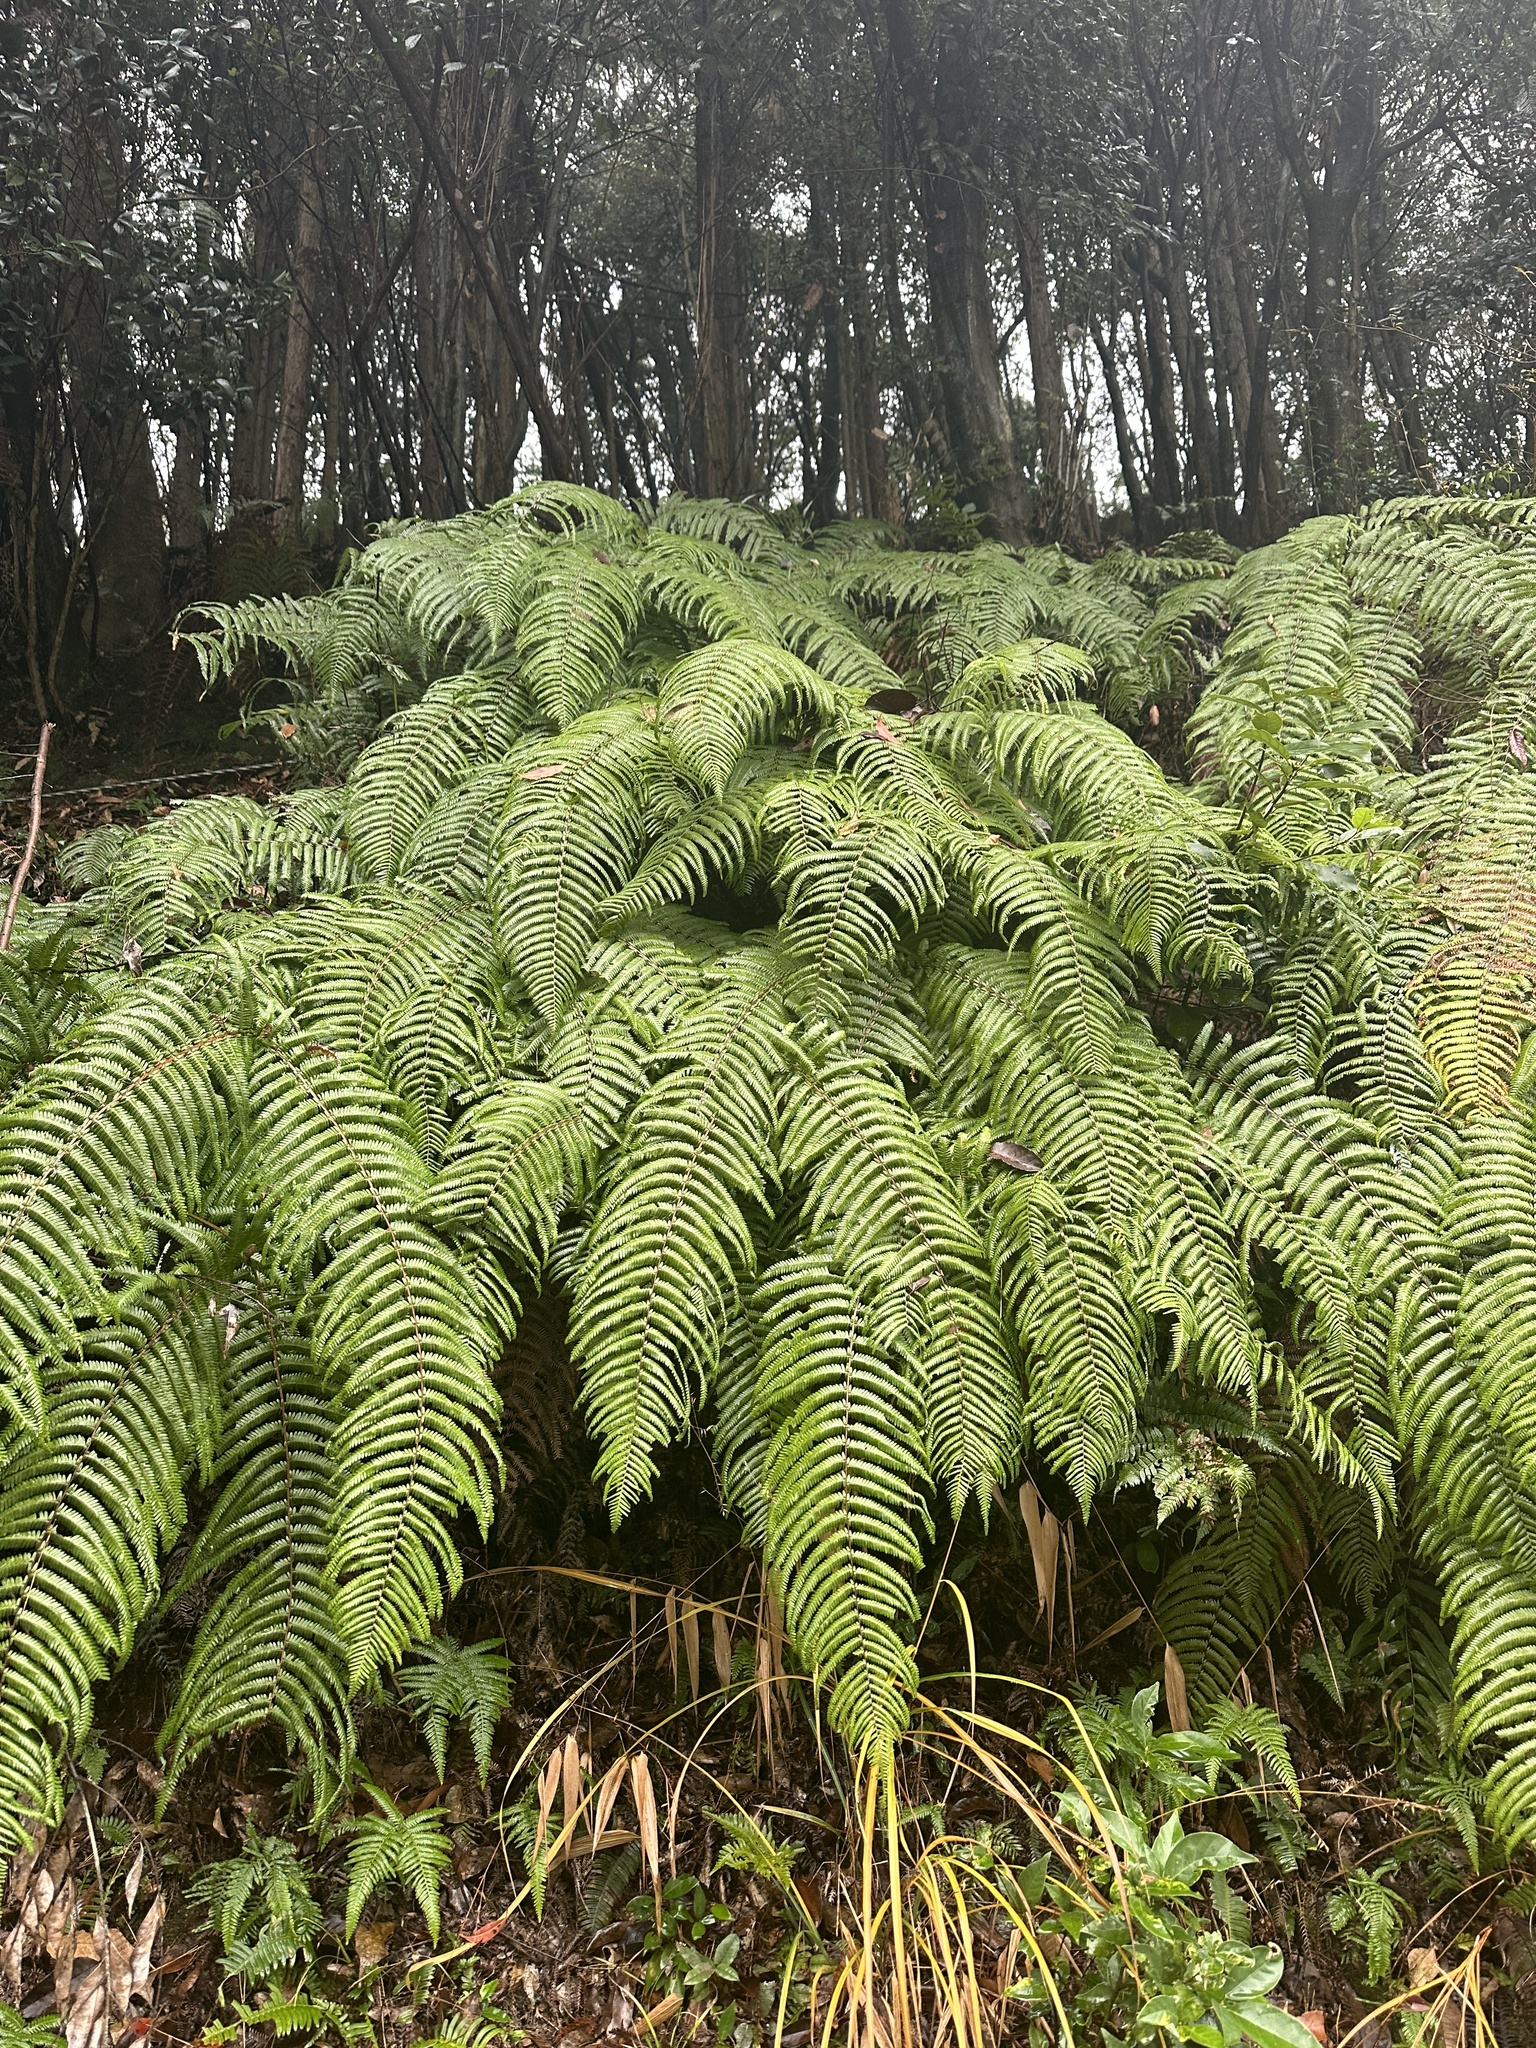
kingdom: Plantae
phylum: Tracheophyta
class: Polypodiopsida
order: Gleicheniales
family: Gleicheniaceae
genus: Diplopterygium
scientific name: Diplopterygium glaucum
